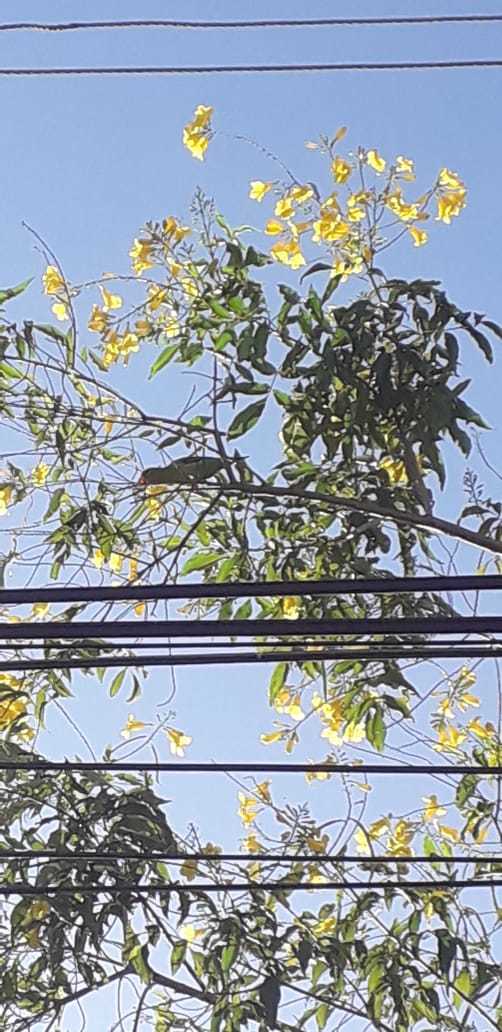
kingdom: Animalia
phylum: Chordata
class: Aves
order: Psittaciformes
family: Psittacidae
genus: Brotogeris
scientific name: Brotogeris jugularis
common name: Orange-chinned parakeet
